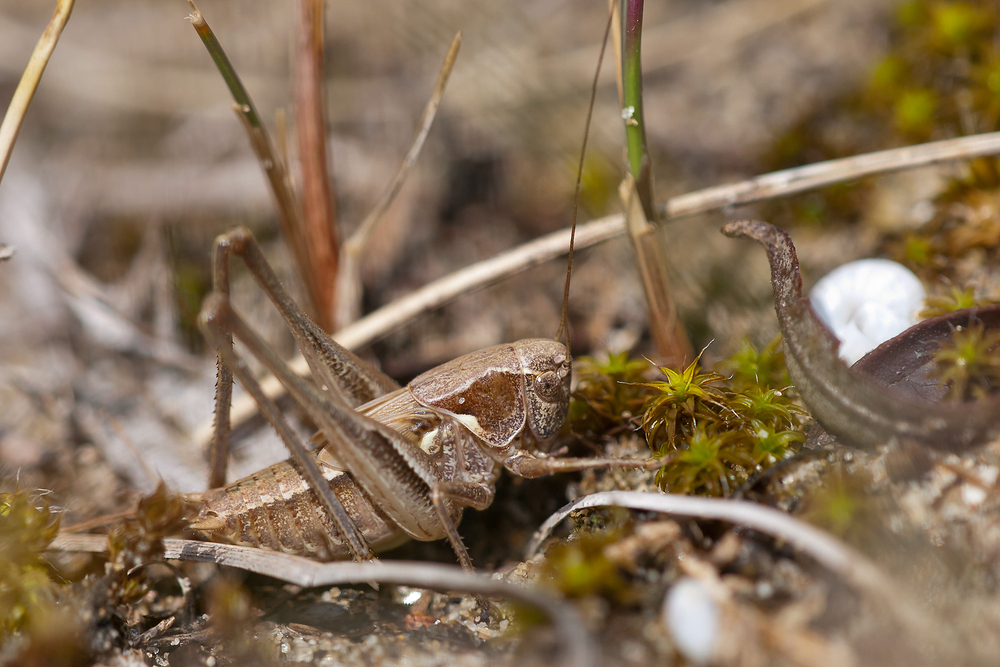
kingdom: Animalia
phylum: Arthropoda
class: Insecta
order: Orthoptera
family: Tettigoniidae
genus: Platycleis
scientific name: Platycleis albopunctata
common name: Grey bush-cricket
